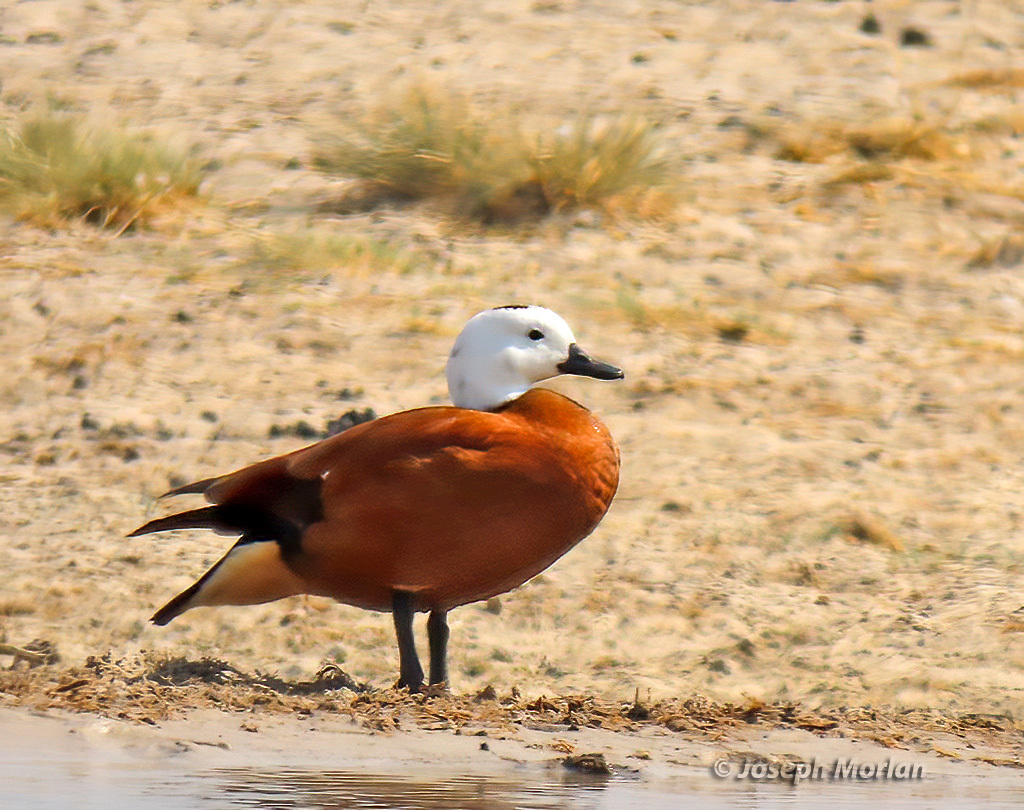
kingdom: Animalia
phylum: Chordata
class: Aves
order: Anseriformes
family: Anatidae
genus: Tadorna
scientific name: Tadorna cana
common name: South african shelduck
